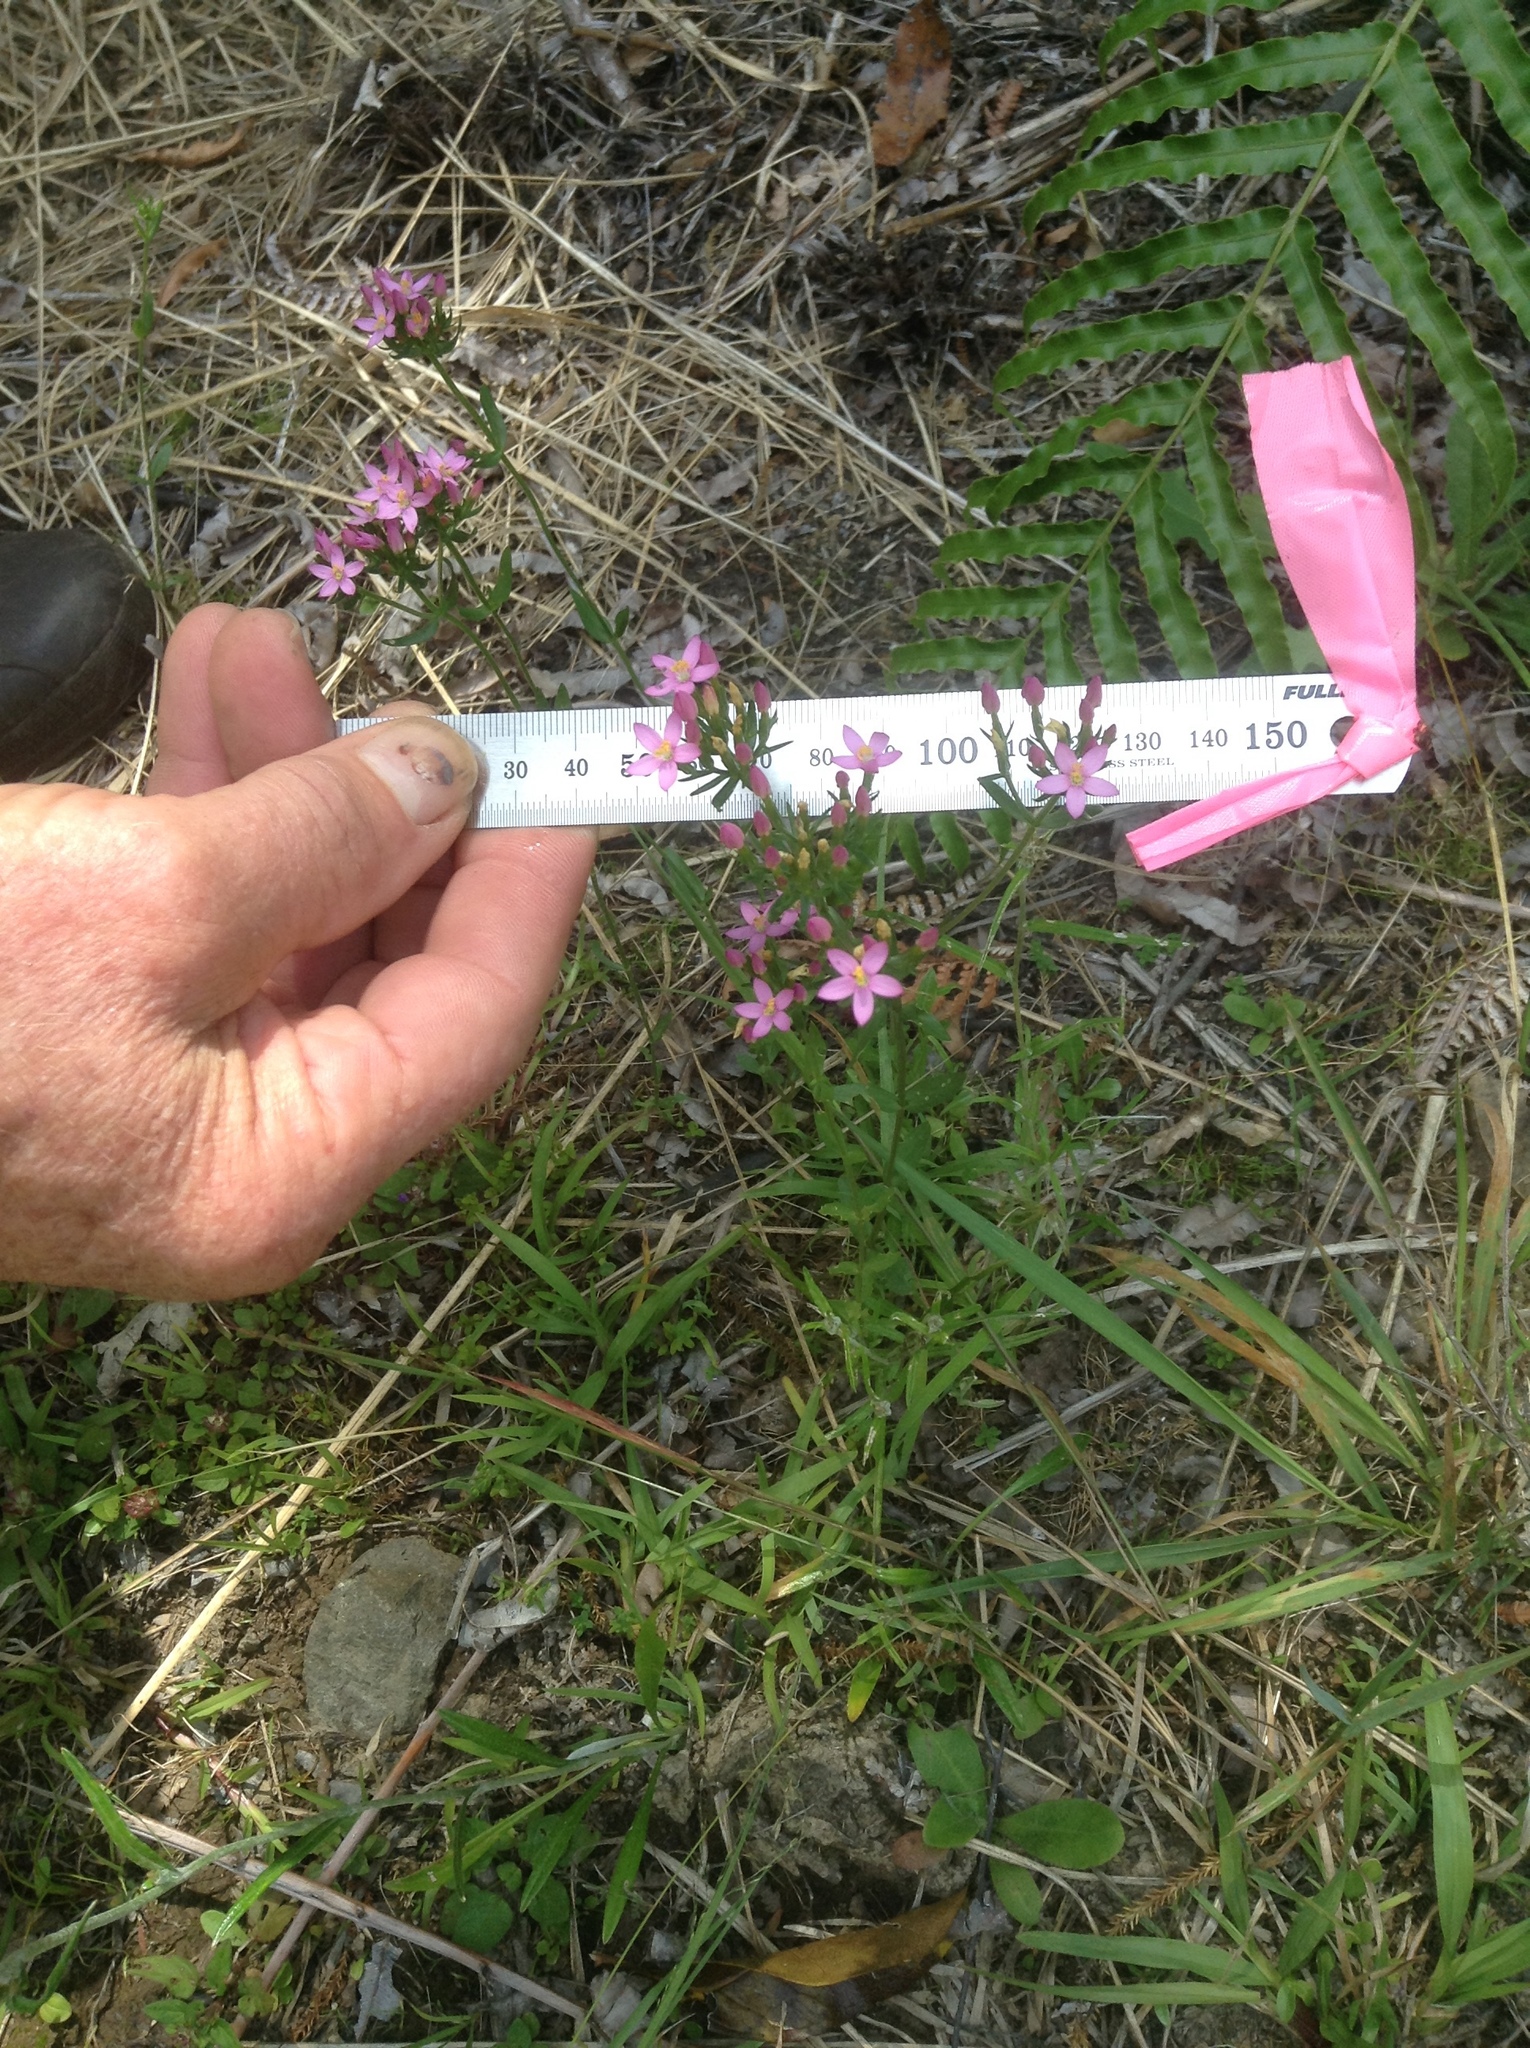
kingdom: Plantae
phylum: Tracheophyta
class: Magnoliopsida
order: Gentianales
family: Gentianaceae
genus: Centaurium
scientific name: Centaurium erythraea
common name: Common centaury
